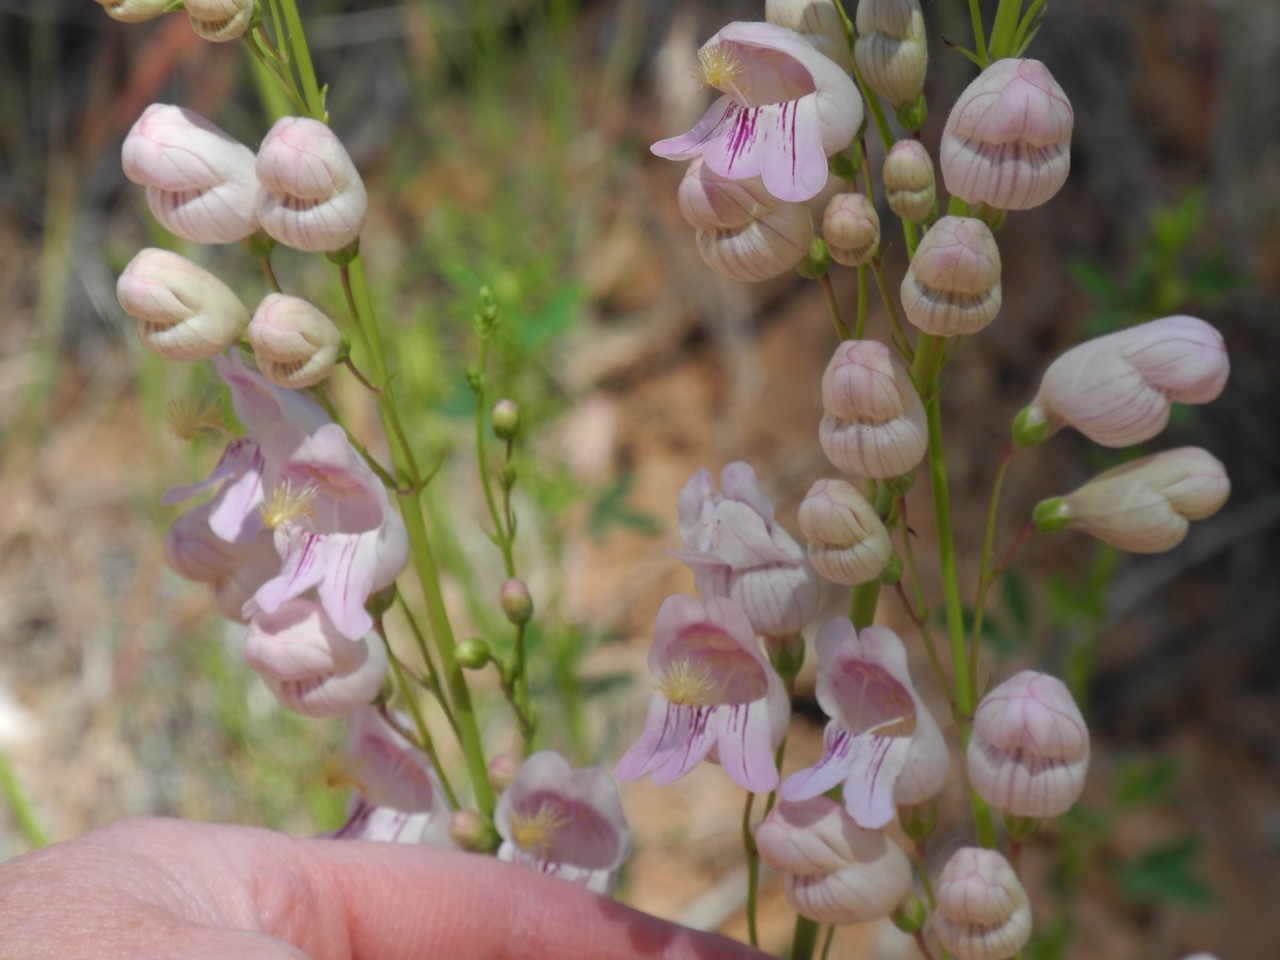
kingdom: Plantae
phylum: Tracheophyta
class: Magnoliopsida
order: Lamiales
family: Plantaginaceae
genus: Penstemon
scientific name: Penstemon palmeri
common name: Palmer penstemon
